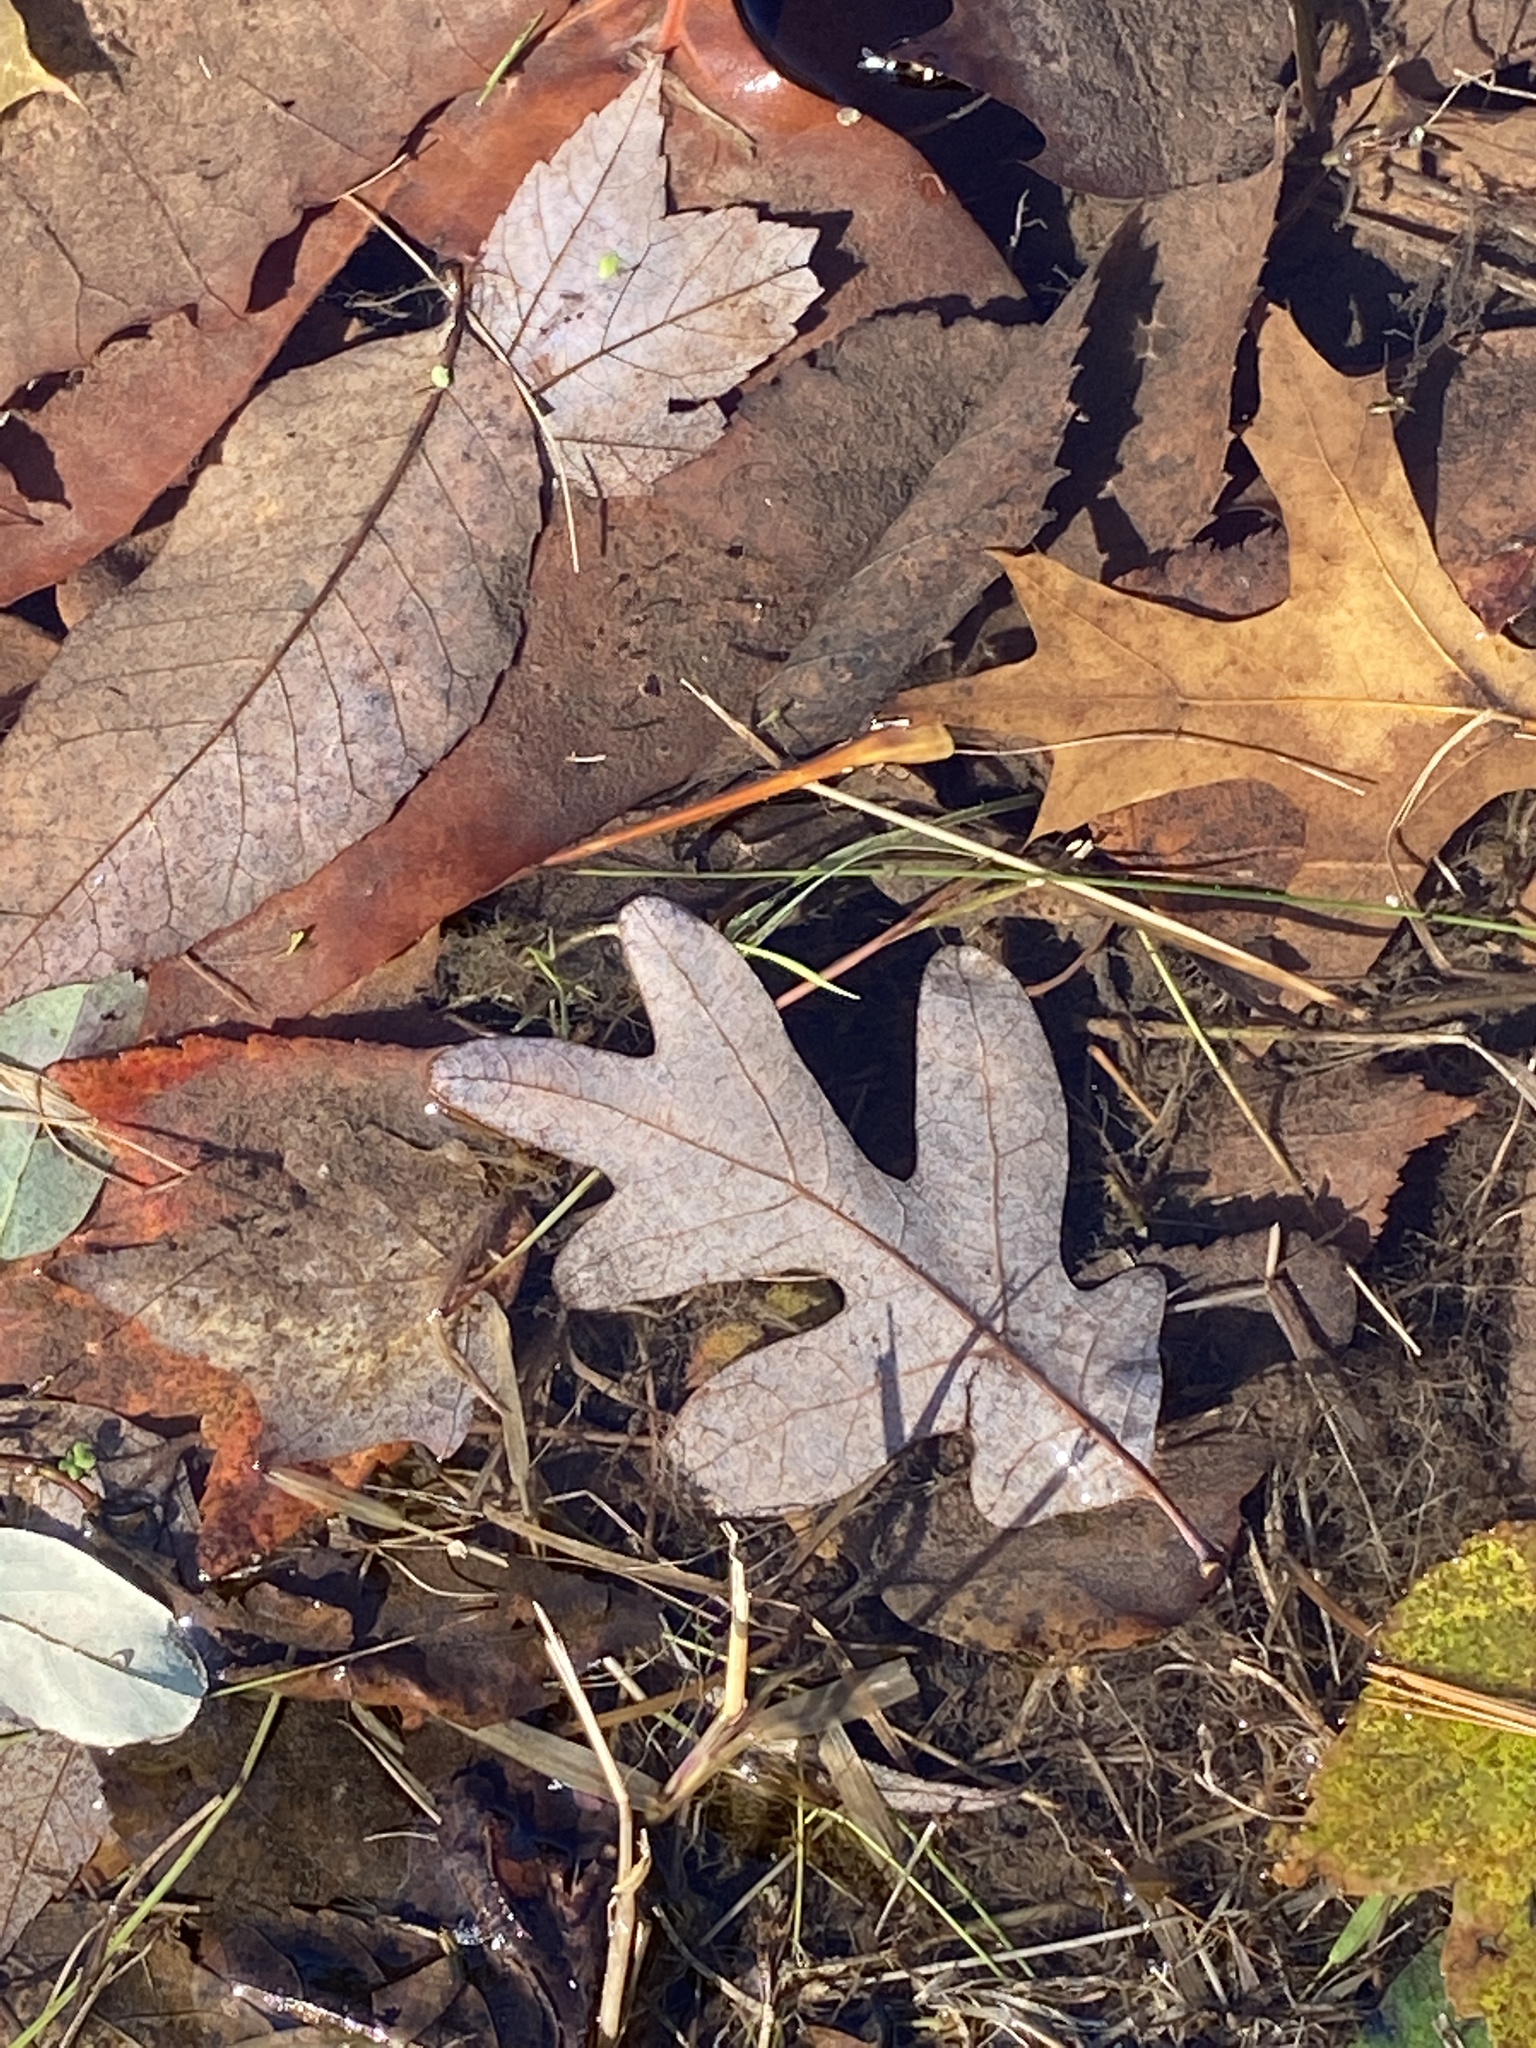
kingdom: Plantae
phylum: Tracheophyta
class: Magnoliopsida
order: Fagales
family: Fagaceae
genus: Quercus
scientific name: Quercus alba
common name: White oak
